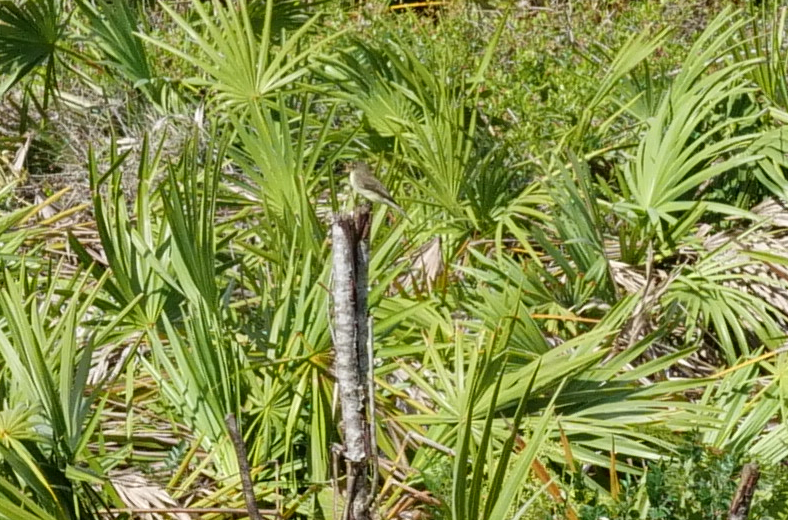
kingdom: Animalia
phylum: Chordata
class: Aves
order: Passeriformes
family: Tyrannidae
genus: Sayornis
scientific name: Sayornis phoebe
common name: Eastern phoebe
